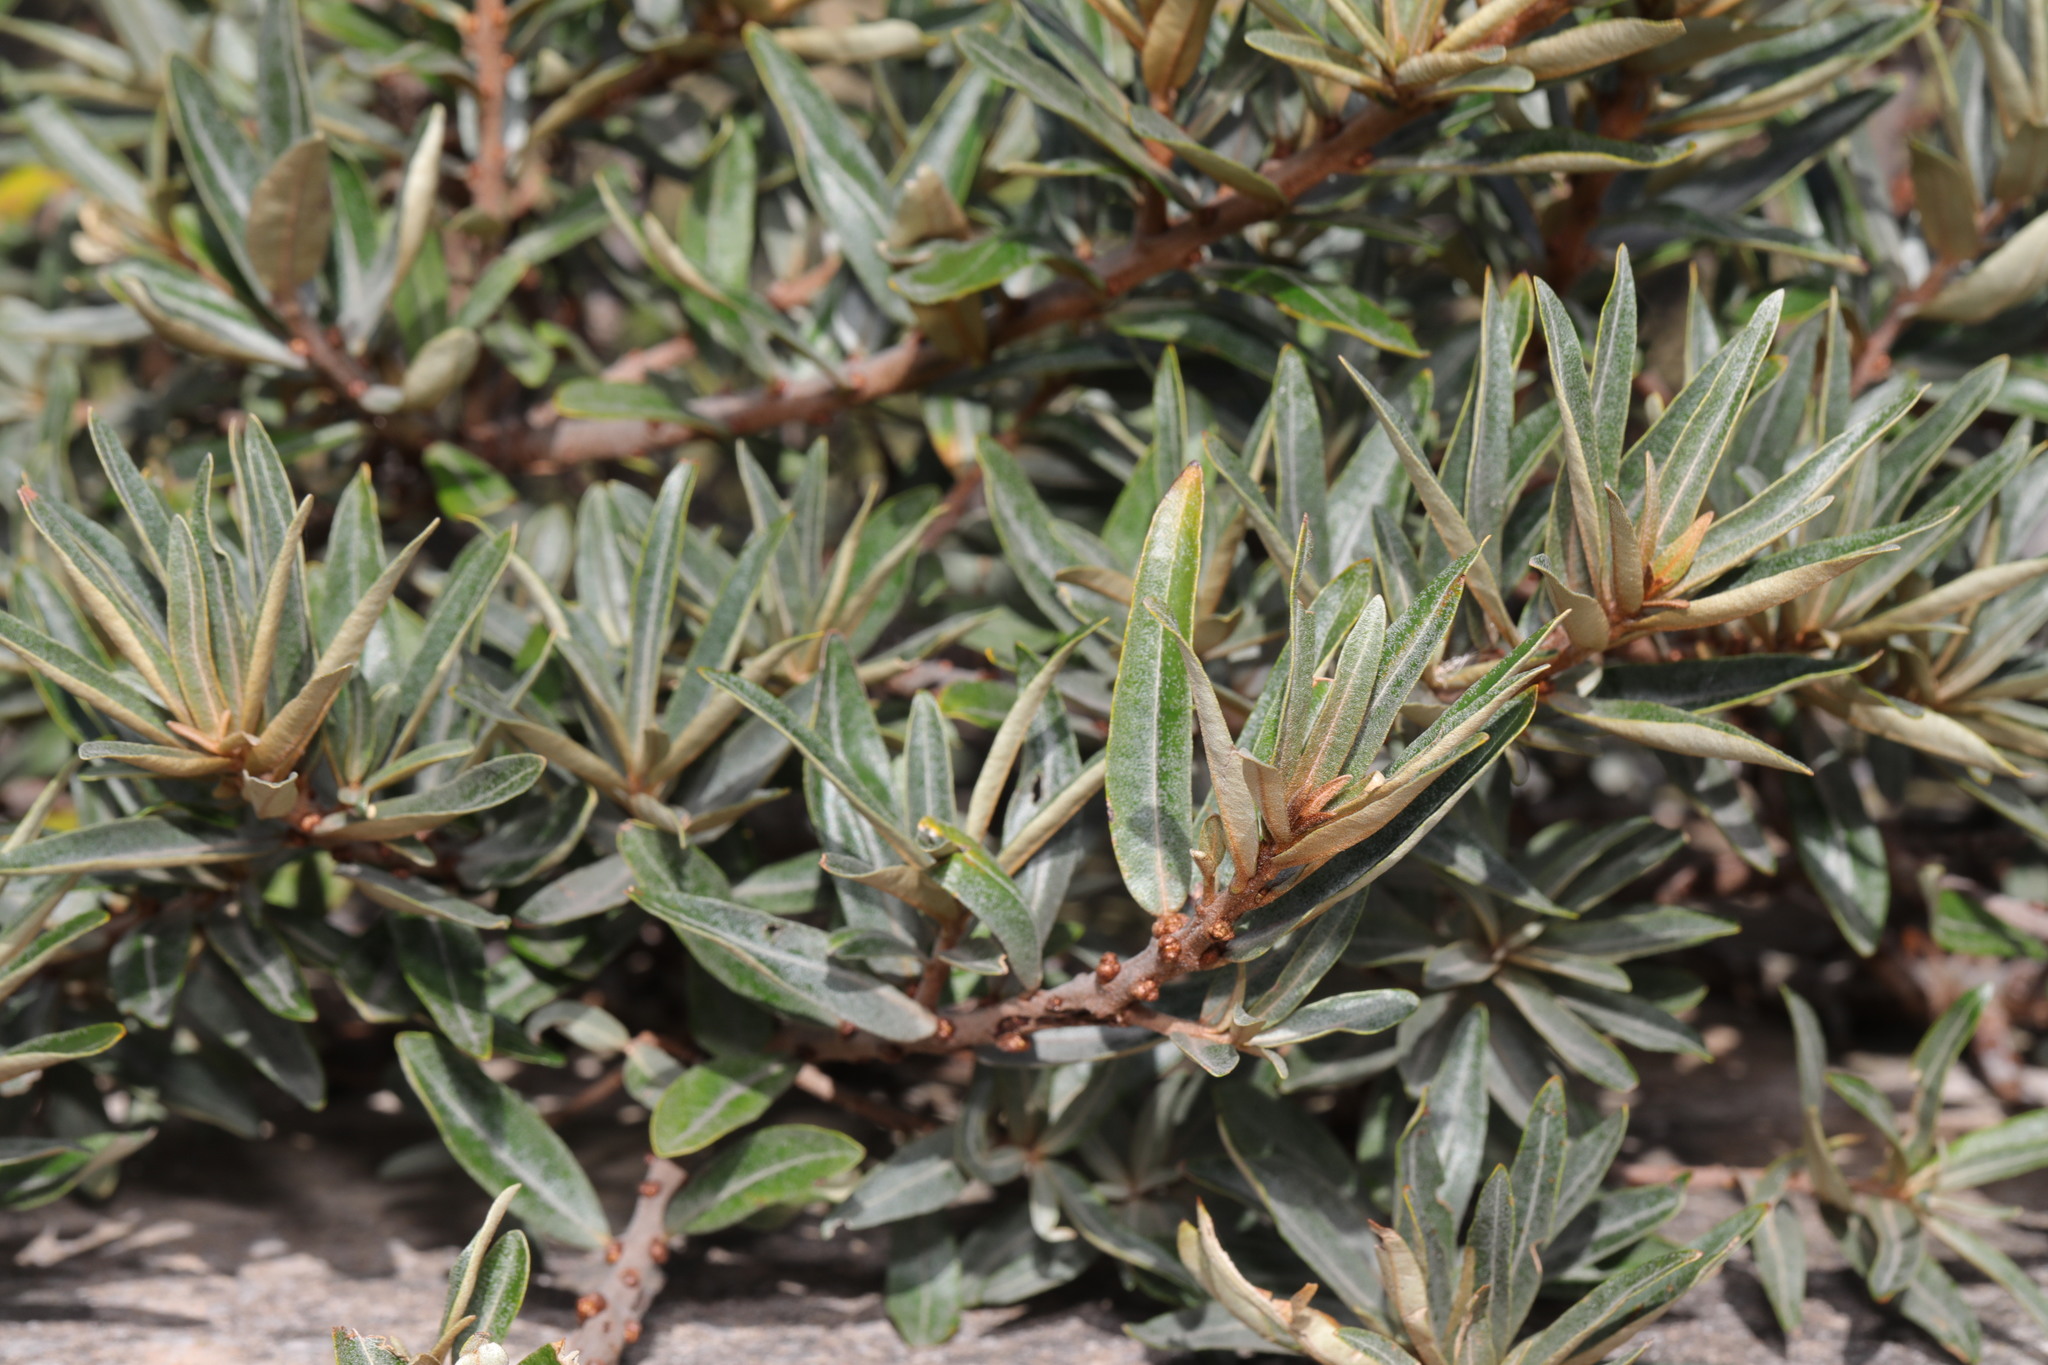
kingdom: Plantae
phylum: Tracheophyta
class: Magnoliopsida
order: Rosales
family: Elaeagnaceae
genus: Hippophae
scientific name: Hippophae rhamnoides
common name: Sea-buckthorn
